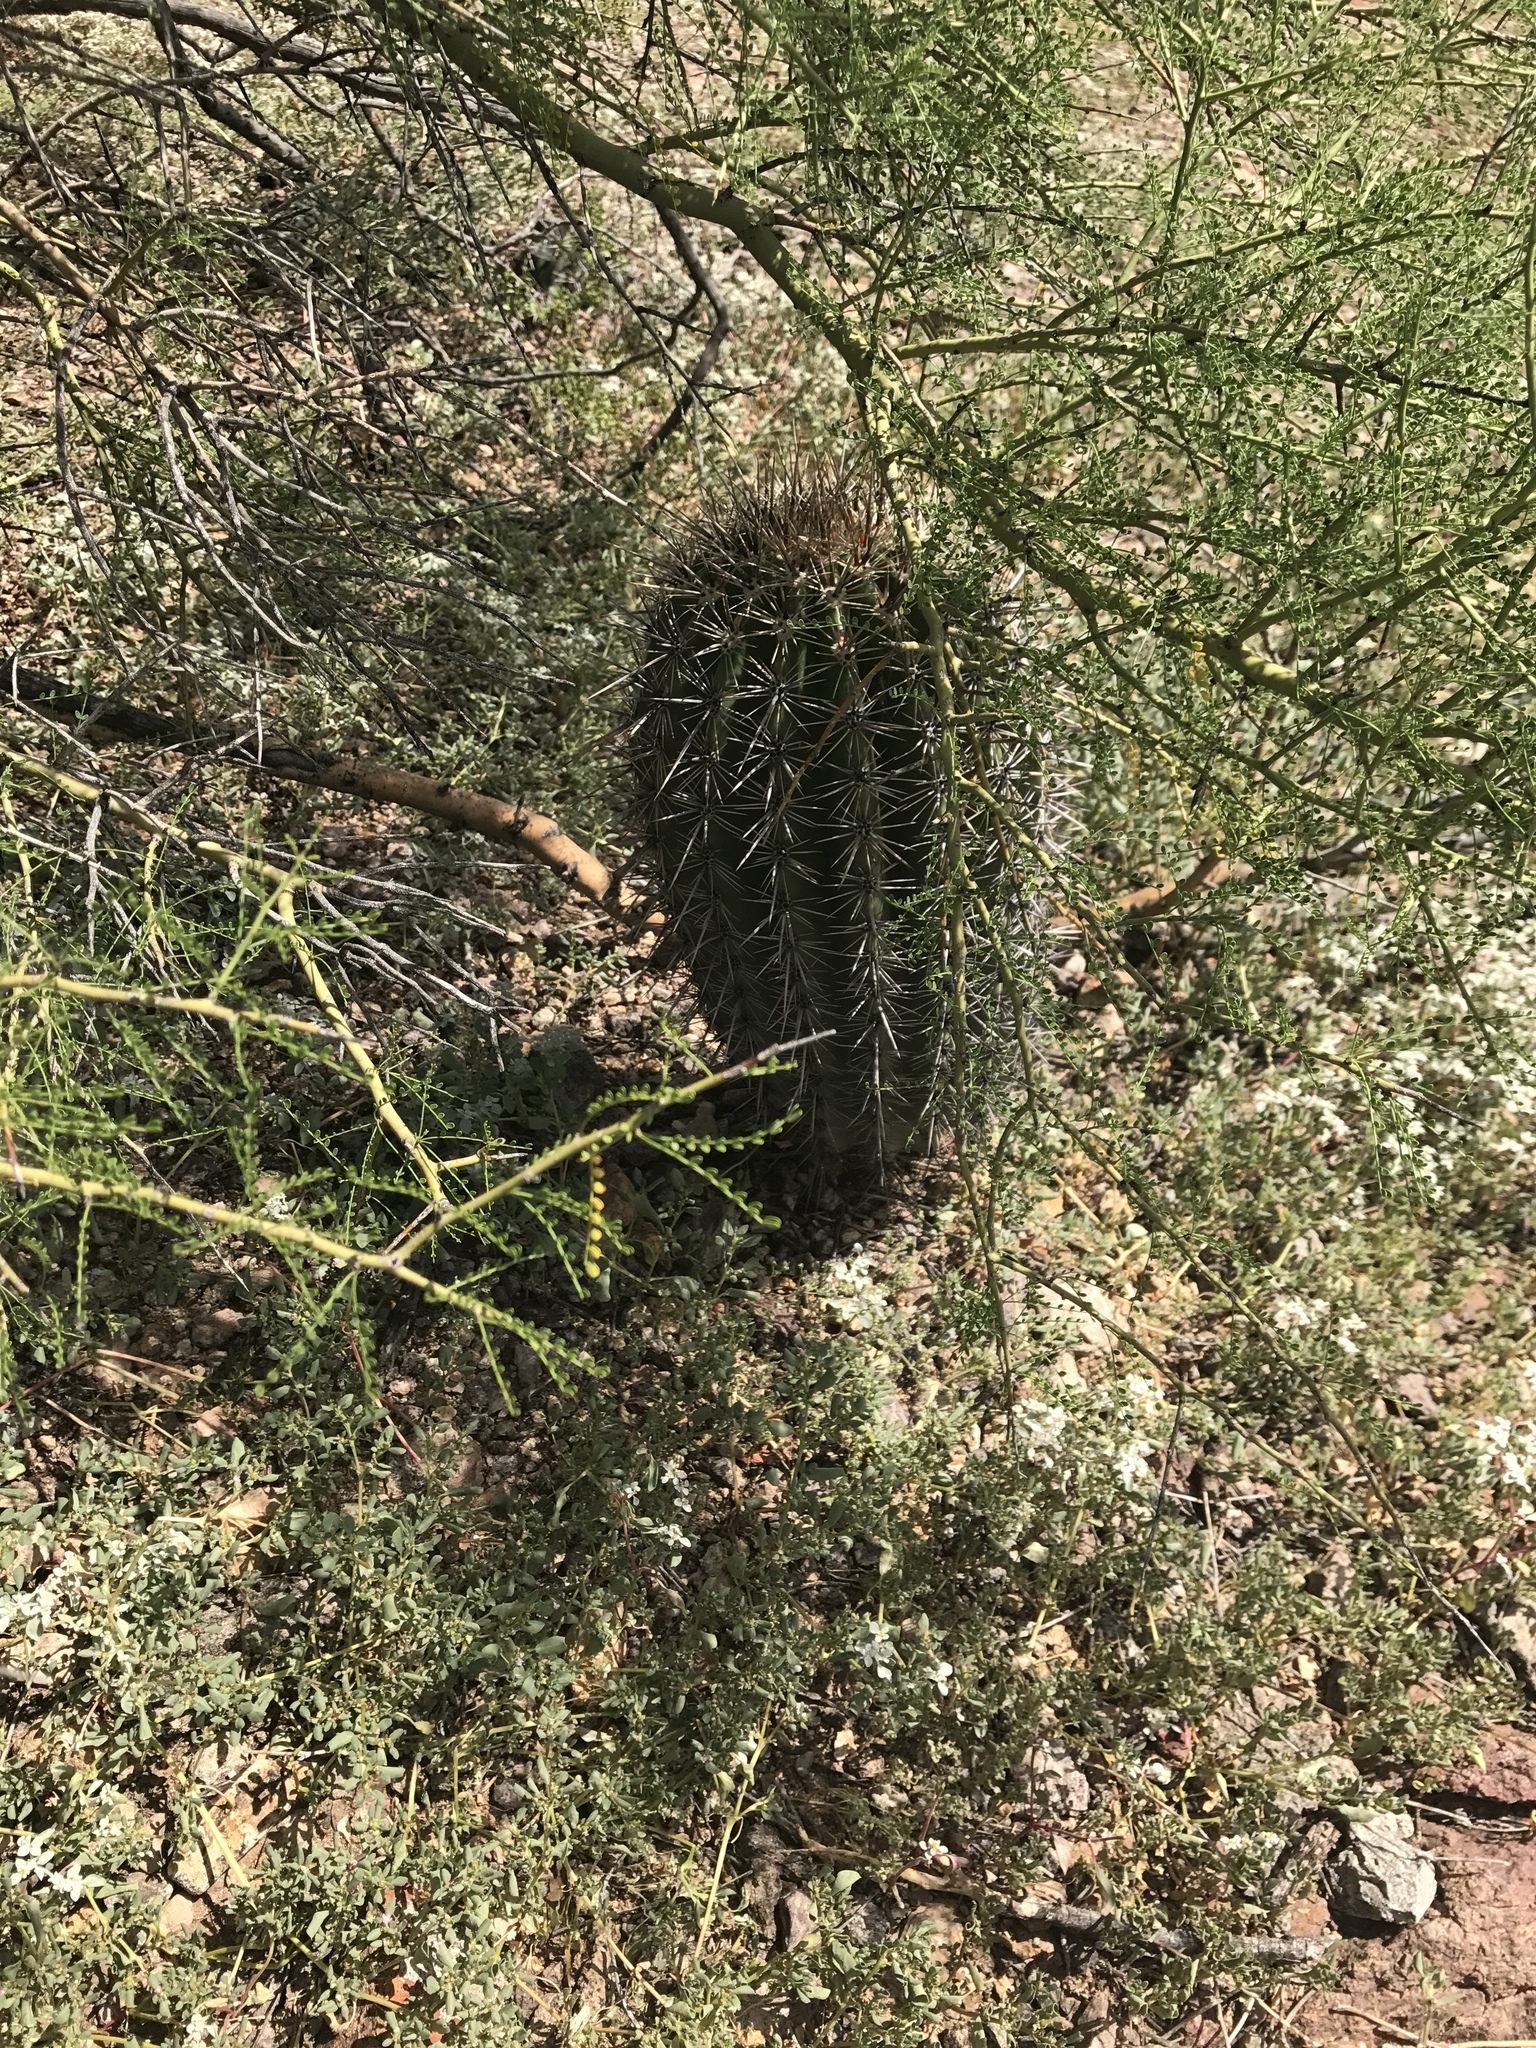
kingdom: Plantae
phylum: Tracheophyta
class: Magnoliopsida
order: Caryophyllales
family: Cactaceae
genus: Carnegiea
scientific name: Carnegiea gigantea
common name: Saguaro
